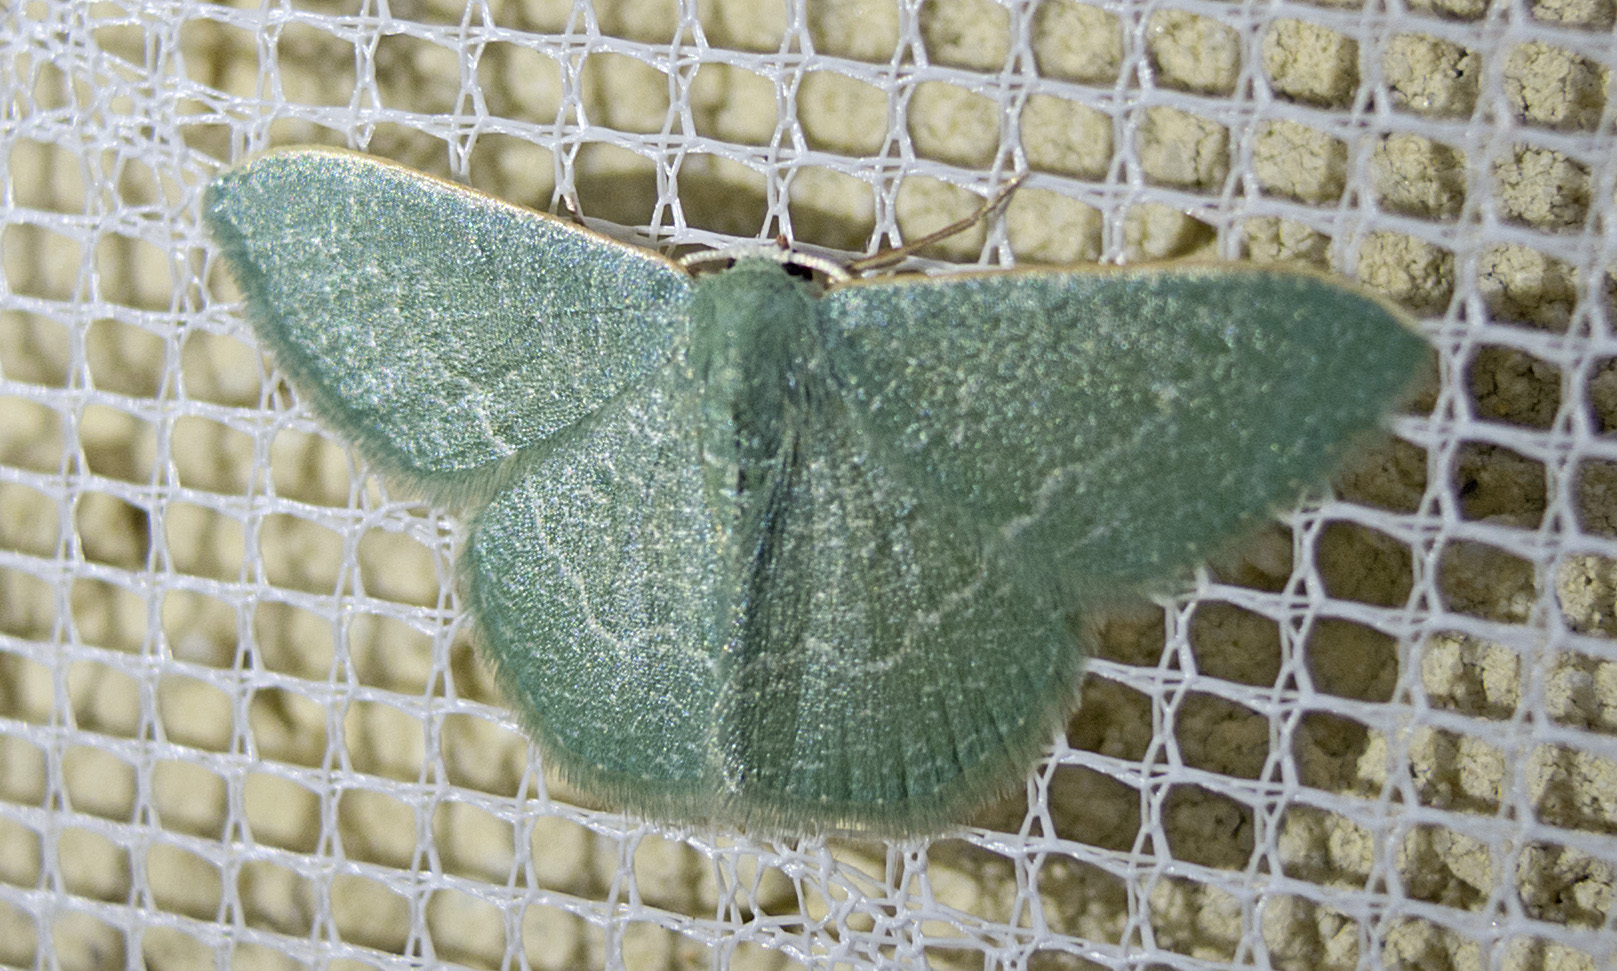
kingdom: Animalia
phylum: Arthropoda
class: Insecta
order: Lepidoptera
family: Geometridae
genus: Chlorissa
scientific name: Chlorissa etruscaria
